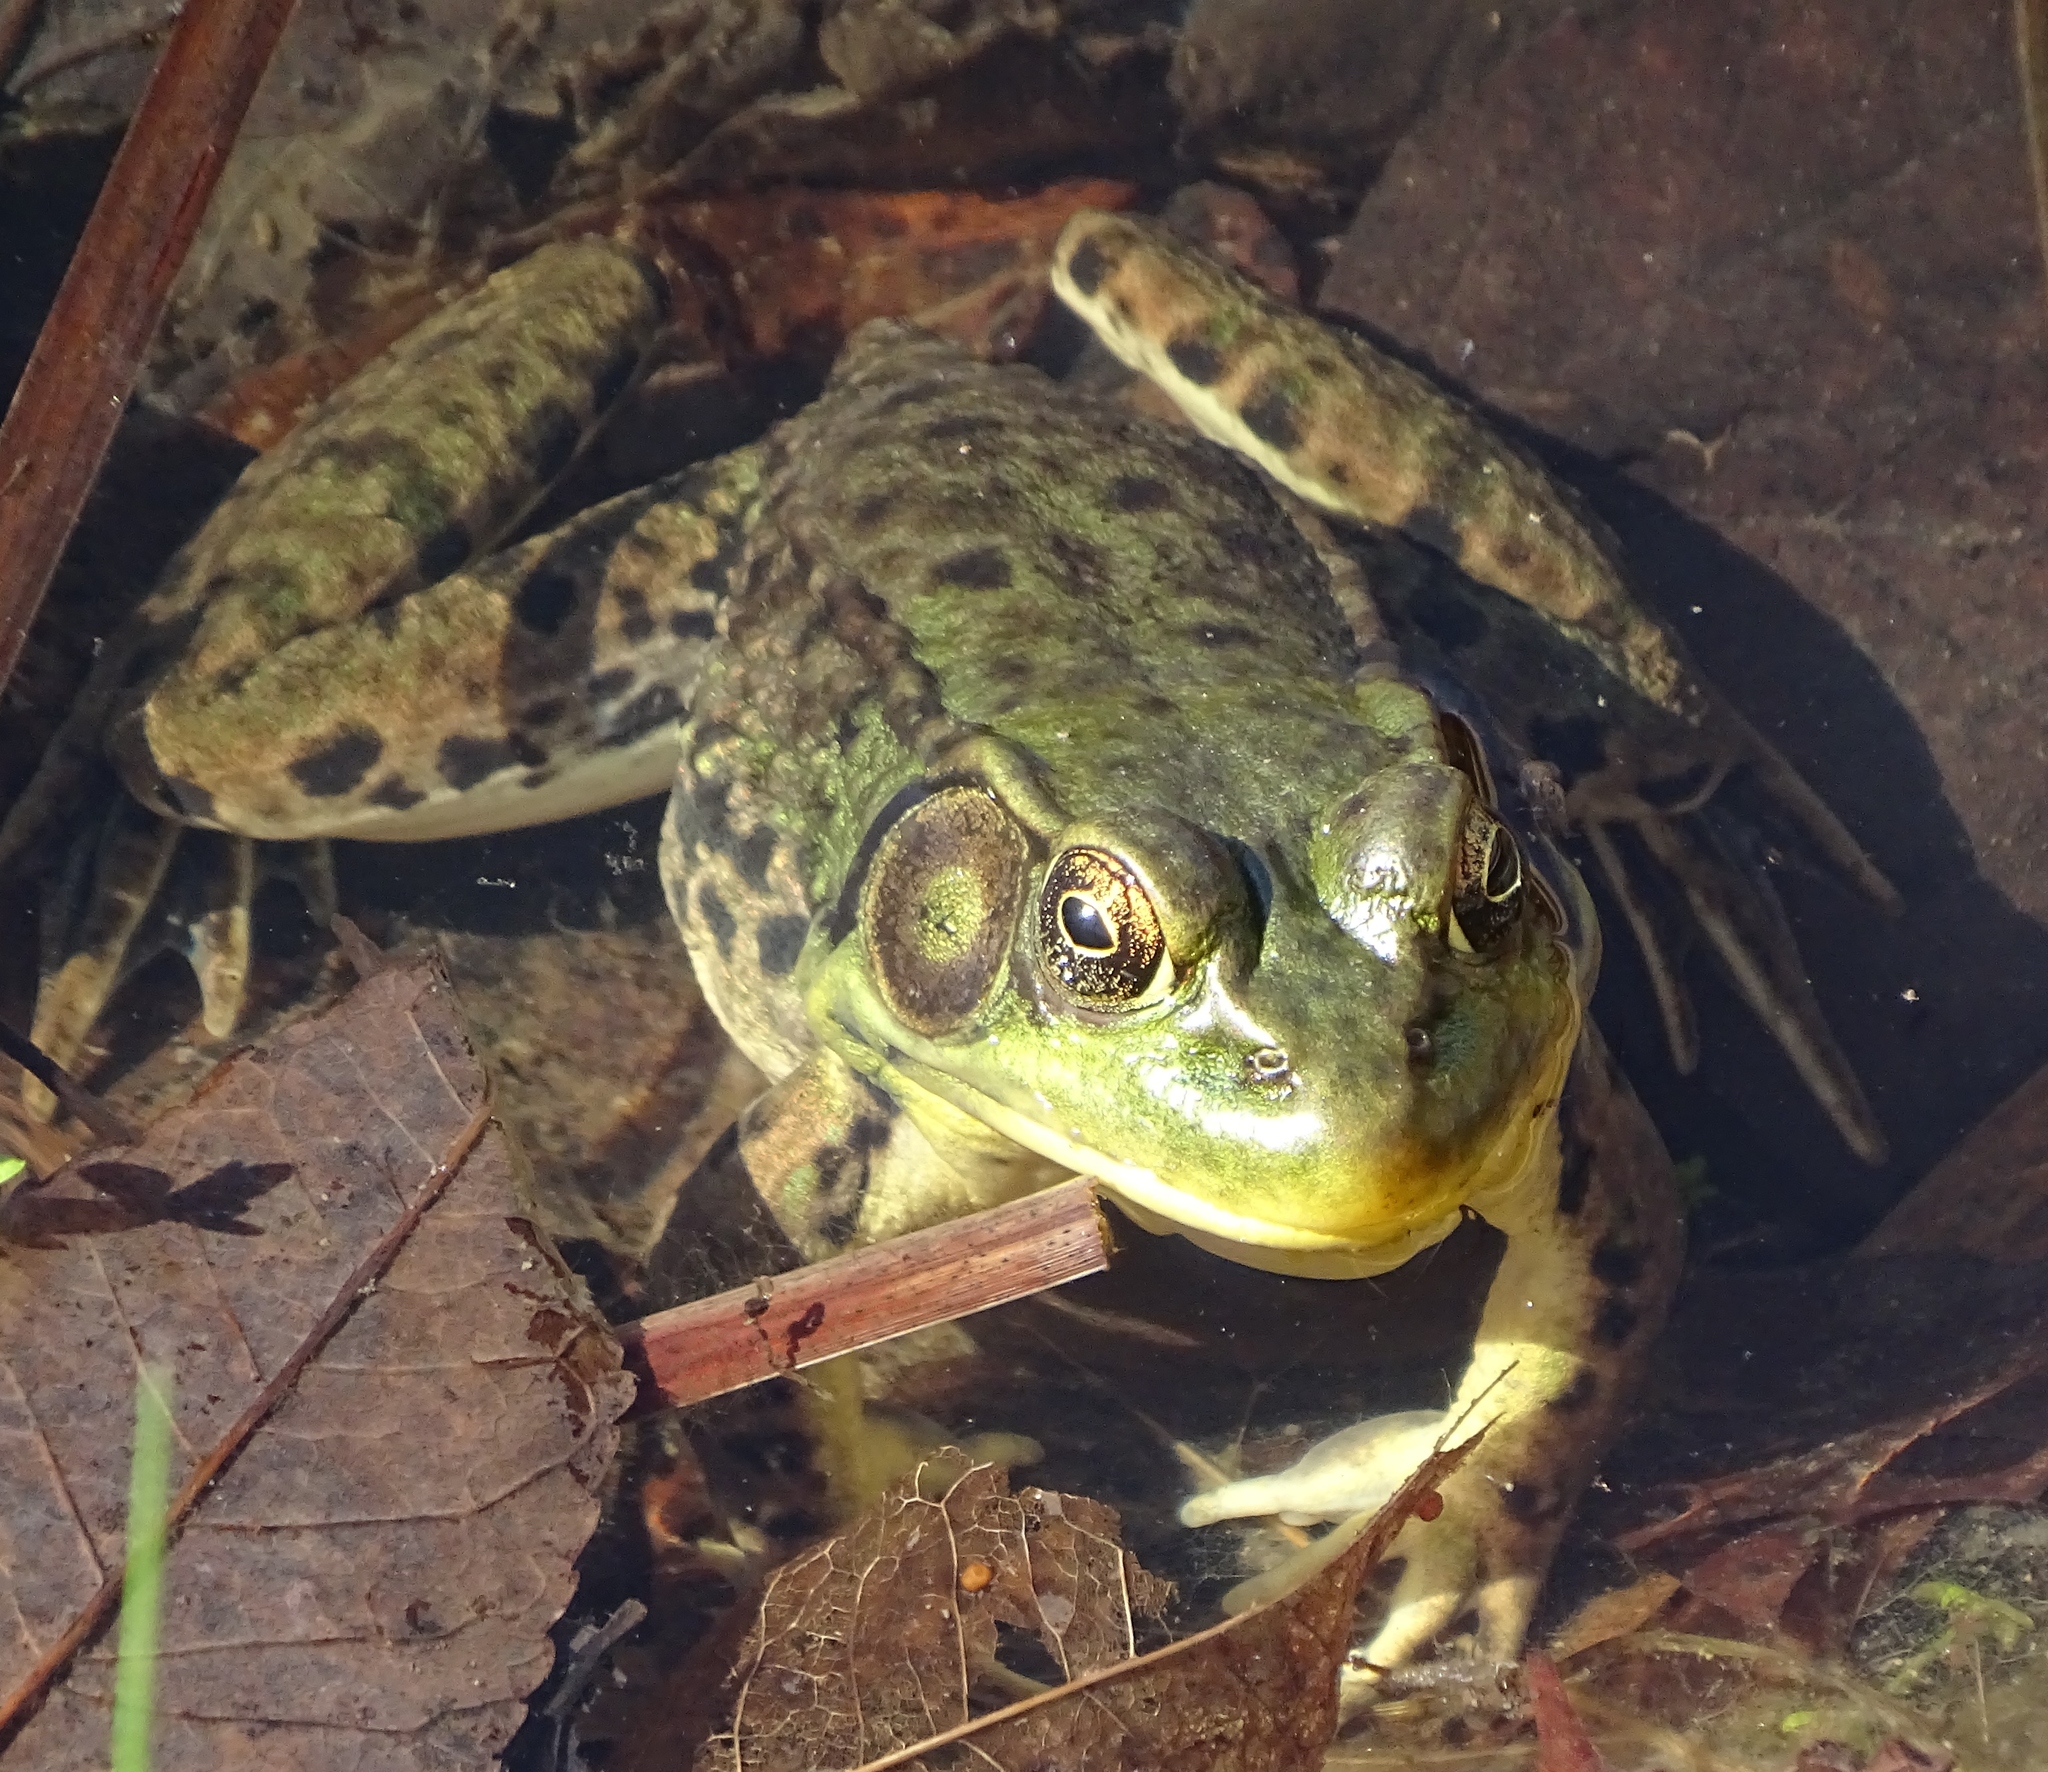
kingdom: Animalia
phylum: Chordata
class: Amphibia
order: Anura
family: Ranidae
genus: Lithobates
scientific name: Lithobates clamitans
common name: Green frog
